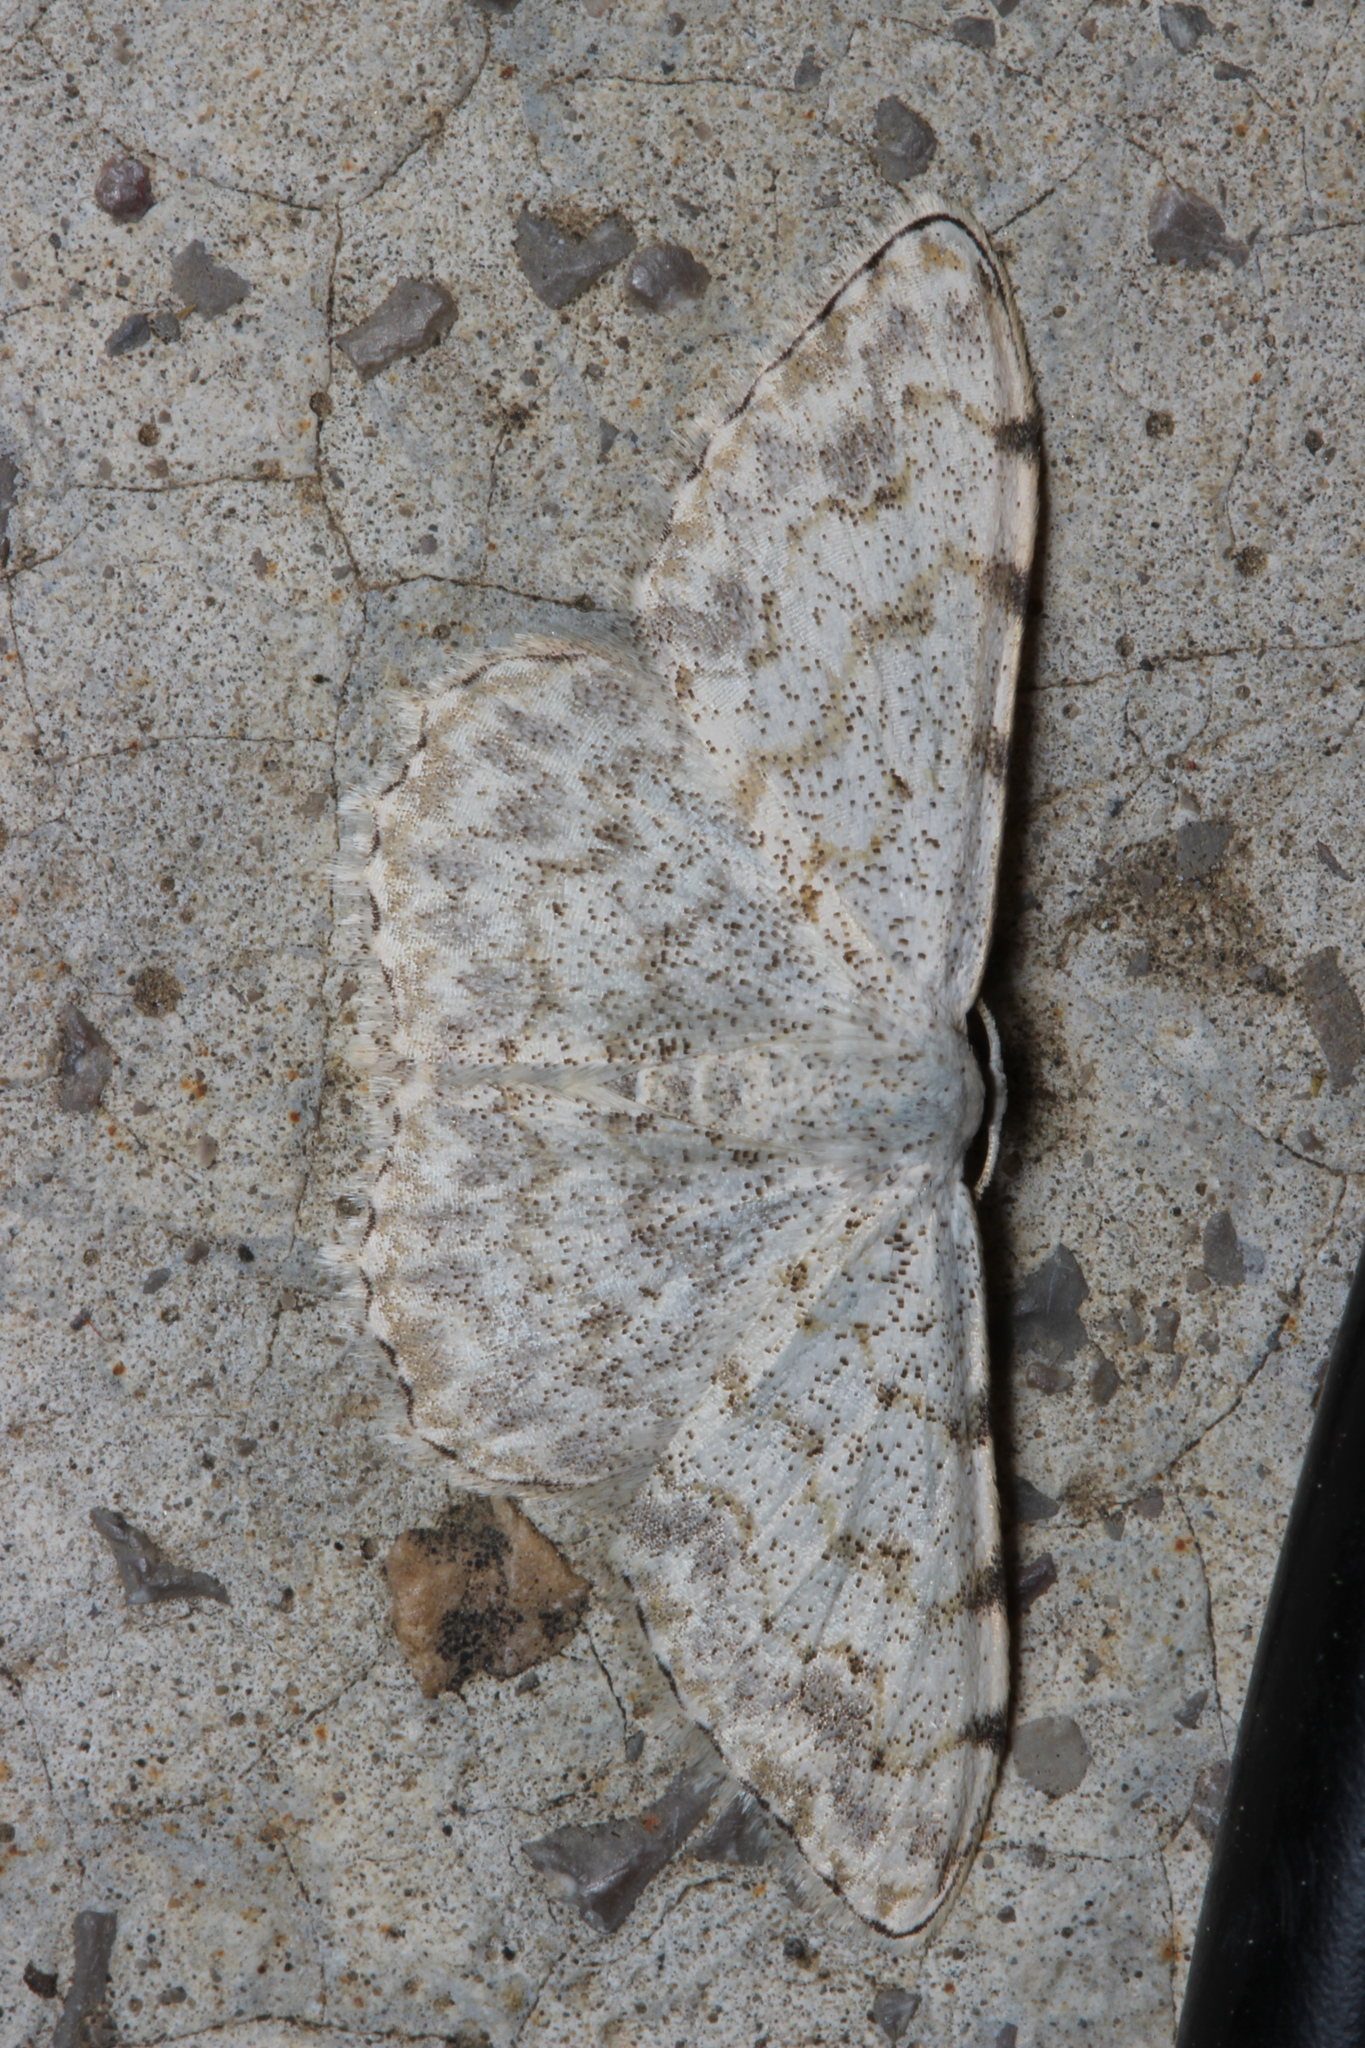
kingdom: Animalia
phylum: Arthropoda
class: Insecta
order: Lepidoptera
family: Geometridae
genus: Scopula
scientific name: Scopula submutata
